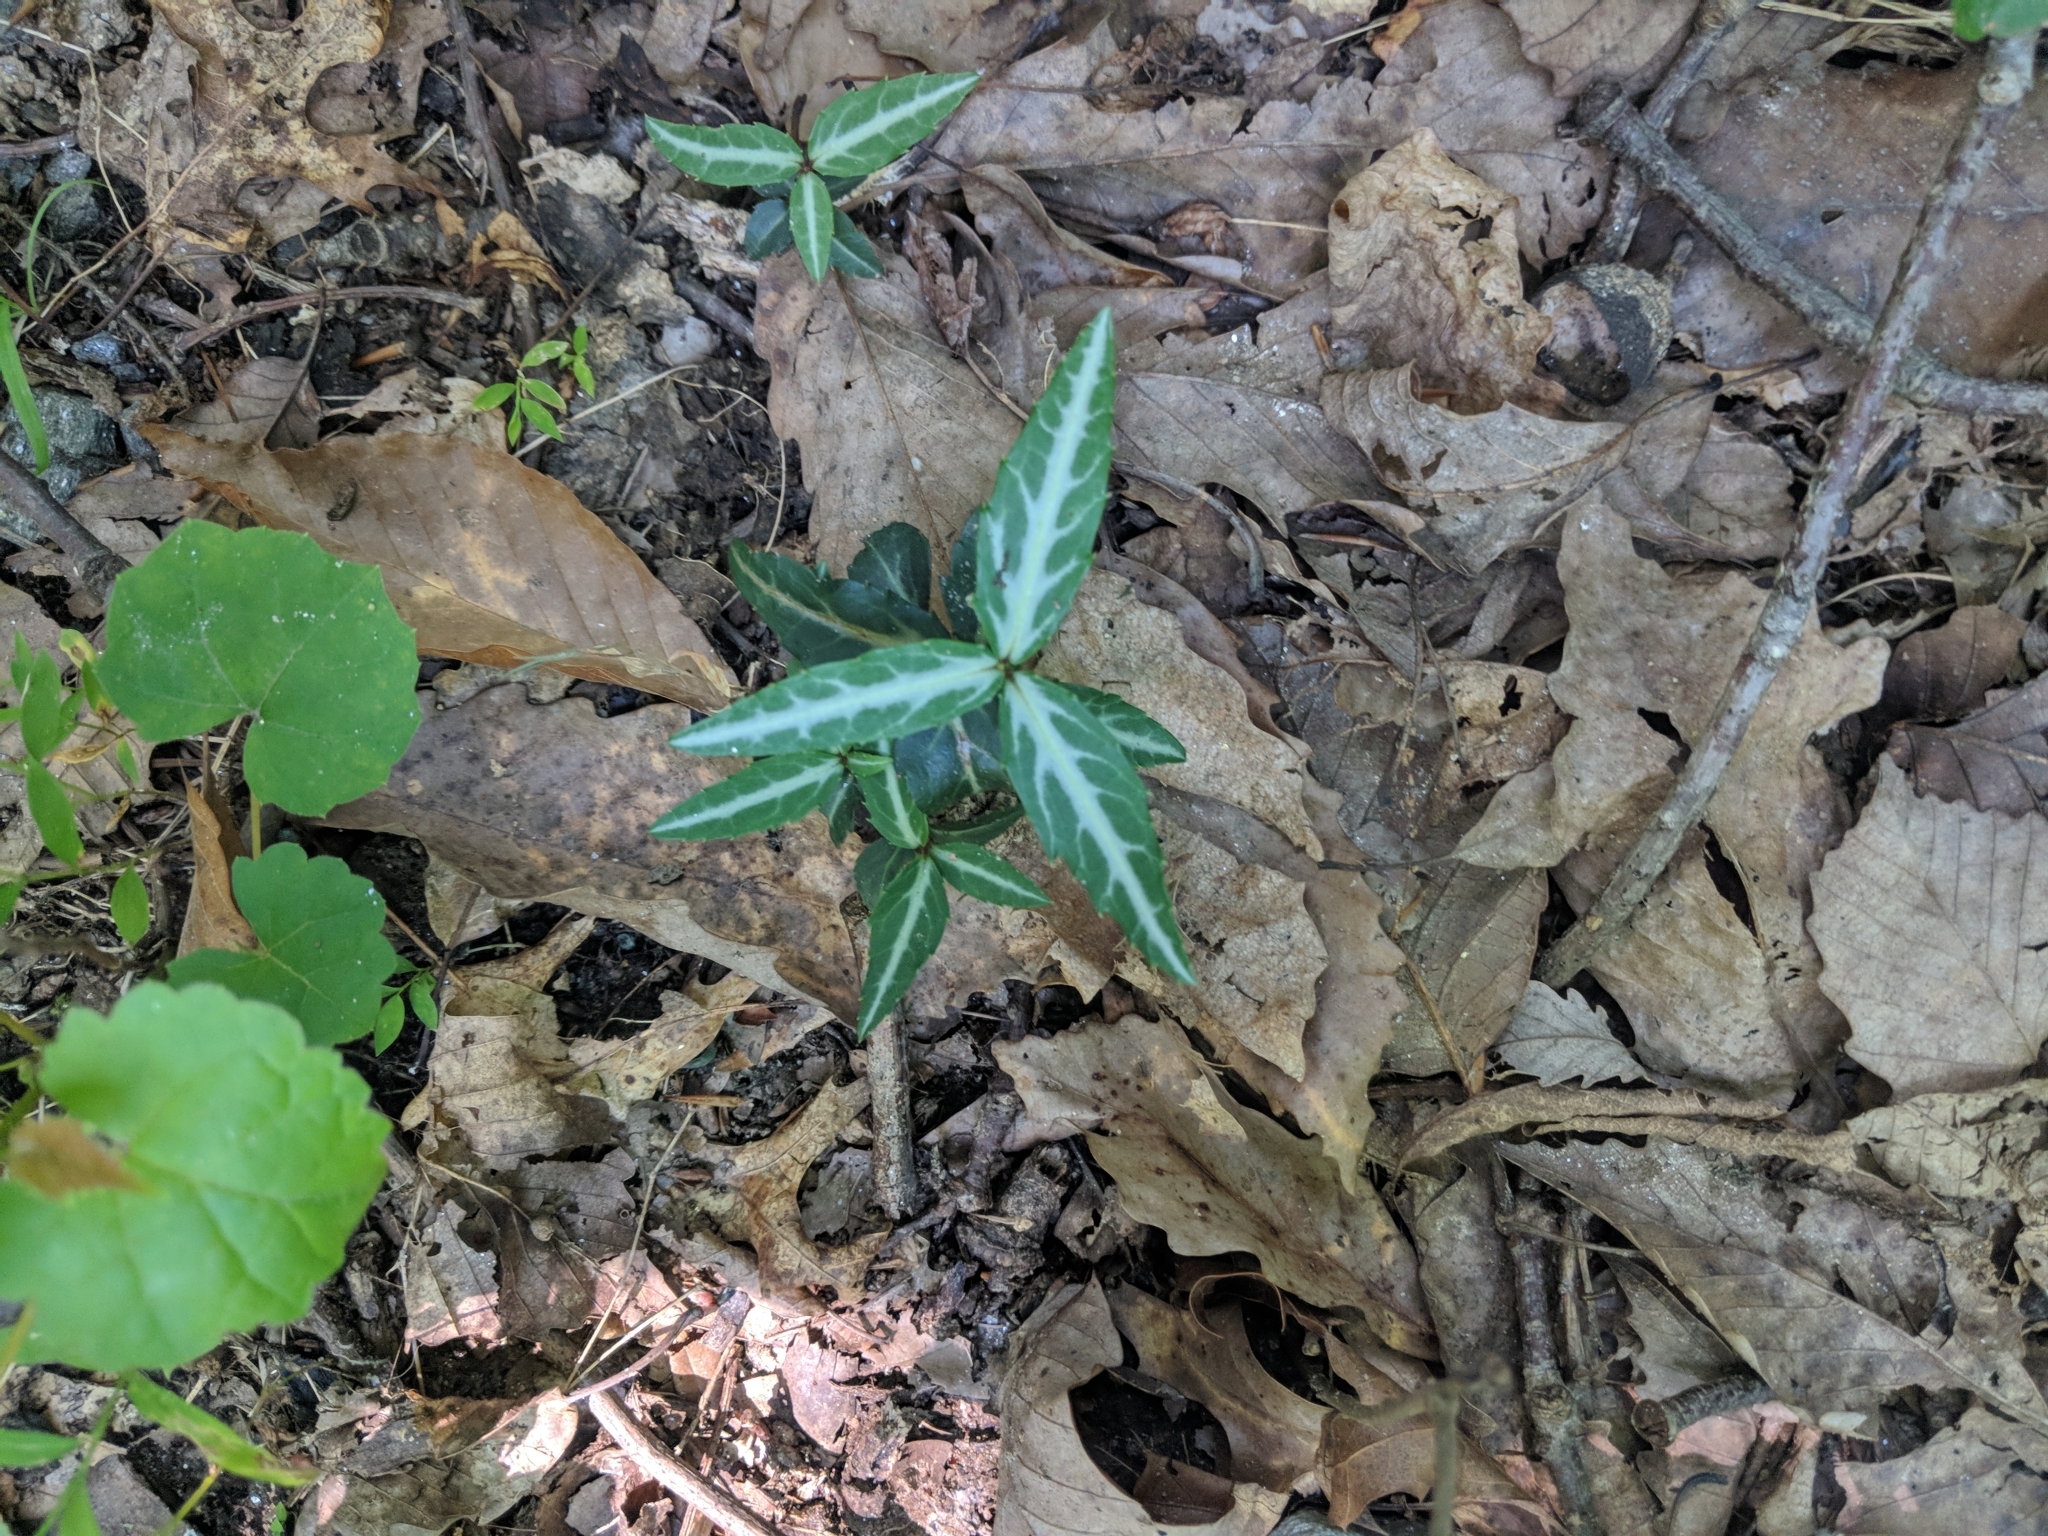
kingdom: Plantae
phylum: Tracheophyta
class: Magnoliopsida
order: Ericales
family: Ericaceae
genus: Chimaphila
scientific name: Chimaphila maculata
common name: Spotted pipsissewa
